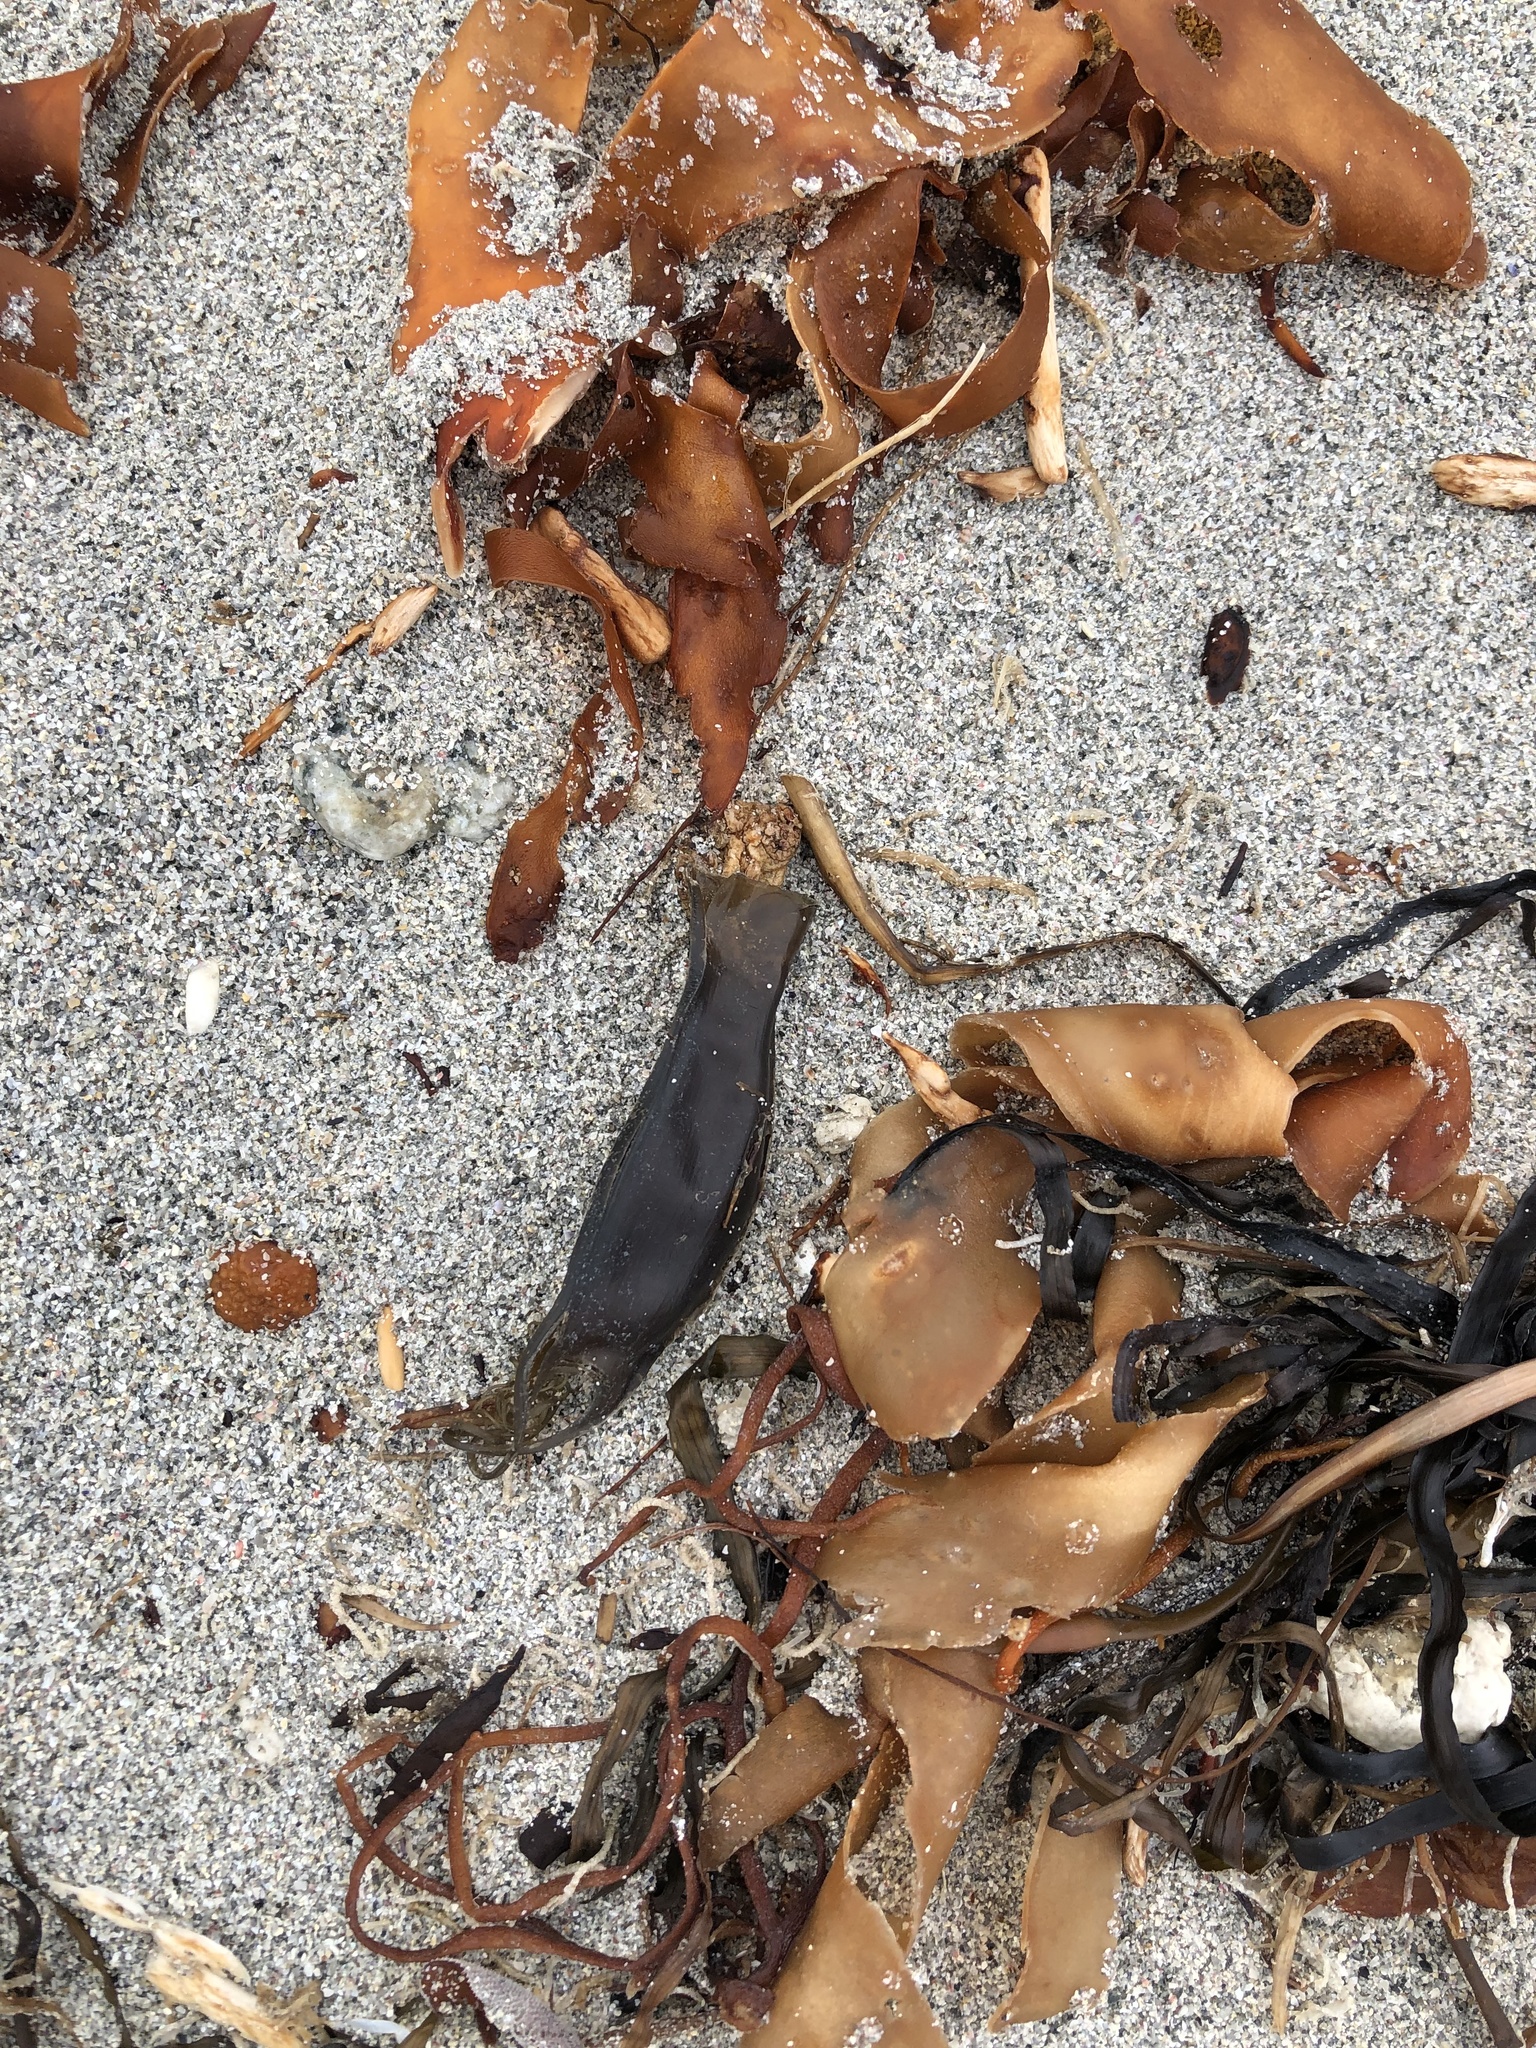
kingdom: Animalia
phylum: Chordata
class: Elasmobranchii
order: Carcharhiniformes
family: Scyliorhinidae
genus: Scyliorhinus
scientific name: Scyliorhinus canicula
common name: Lesser spotted dogfish
